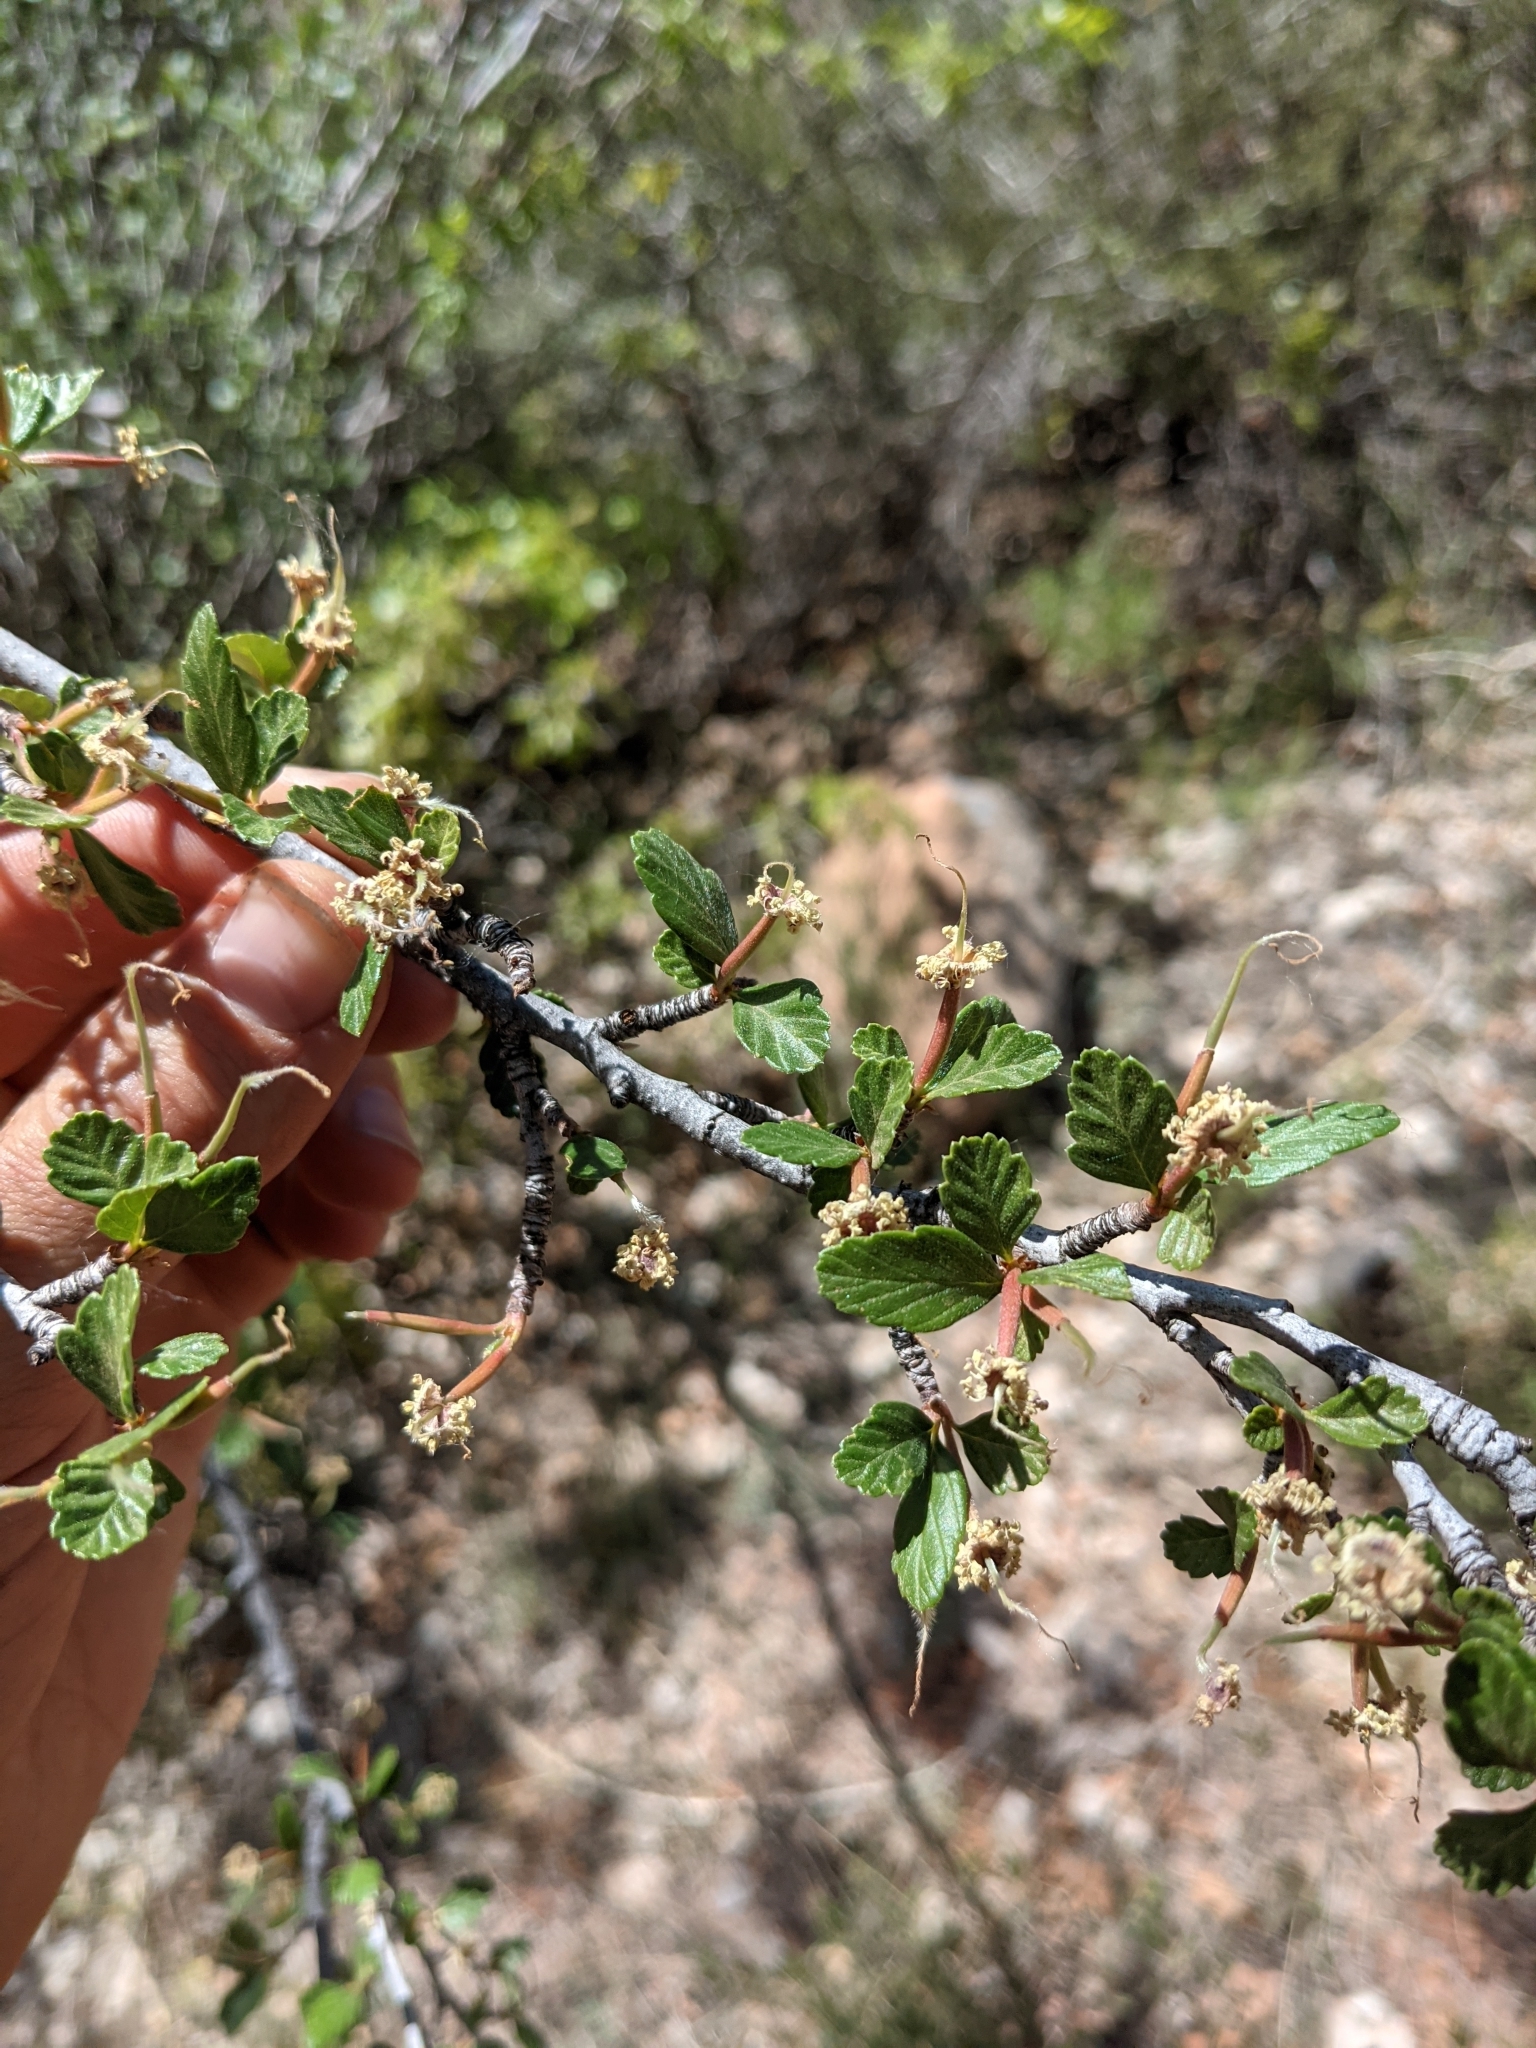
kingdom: Plantae
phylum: Tracheophyta
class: Magnoliopsida
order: Rosales
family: Rosaceae
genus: Cercocarpus
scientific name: Cercocarpus montanus
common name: Alder-leaf cercocarpus
